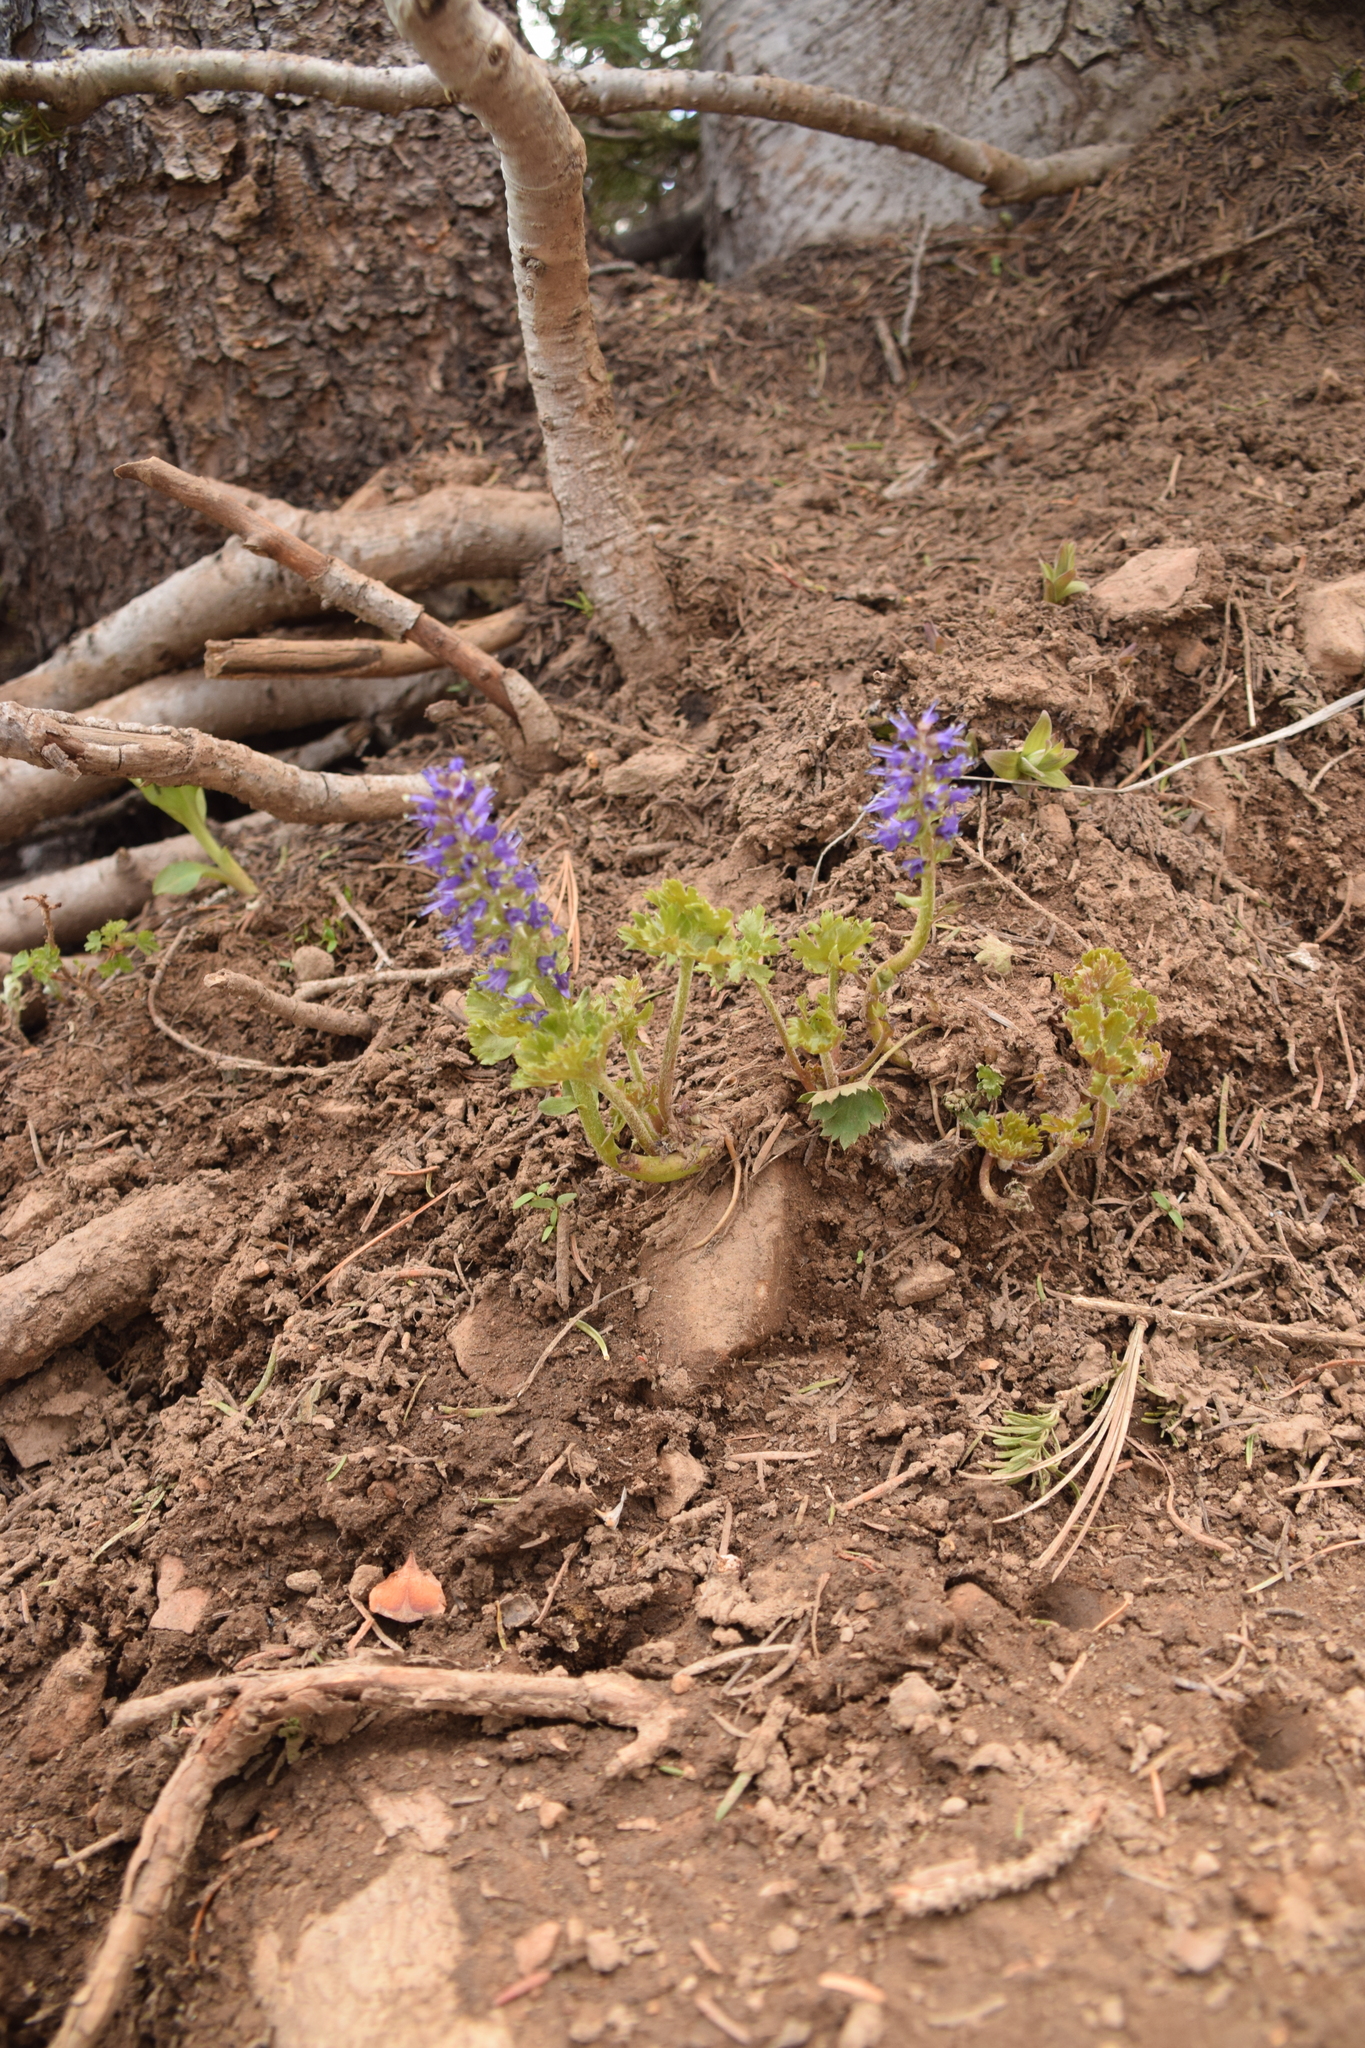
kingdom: Plantae
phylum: Tracheophyta
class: Magnoliopsida
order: Lamiales
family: Plantaginaceae
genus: Synthyris
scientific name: Synthyris laciniata
